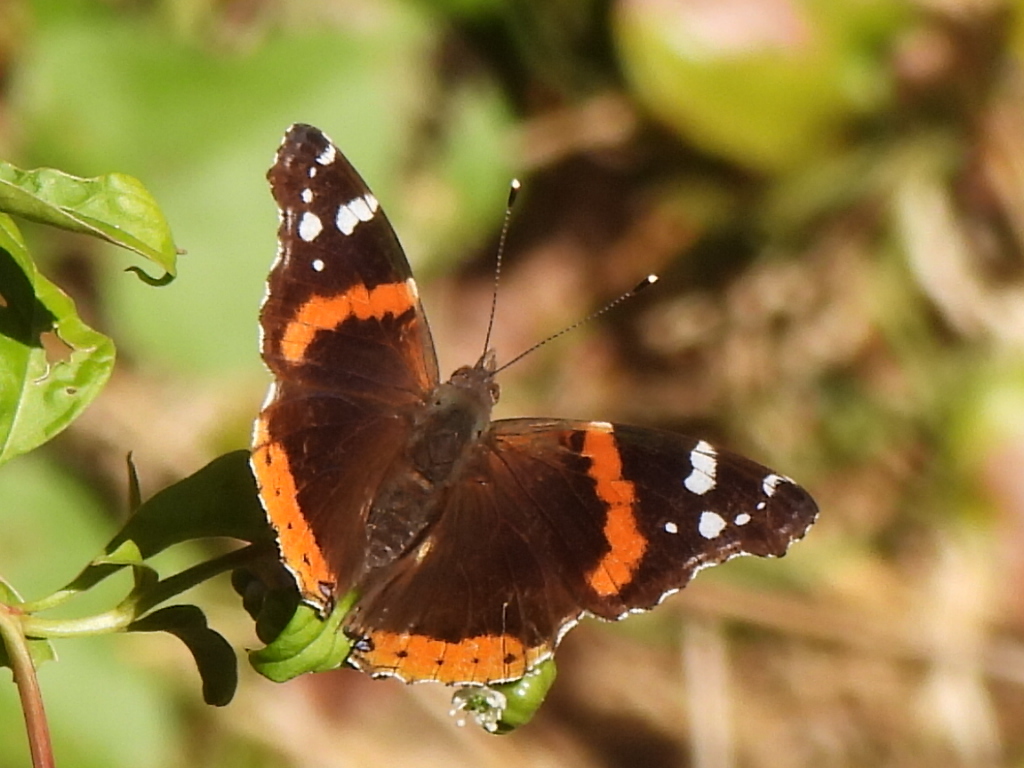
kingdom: Animalia
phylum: Arthropoda
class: Insecta
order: Lepidoptera
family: Nymphalidae
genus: Vanessa
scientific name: Vanessa atalanta
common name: Red admiral
